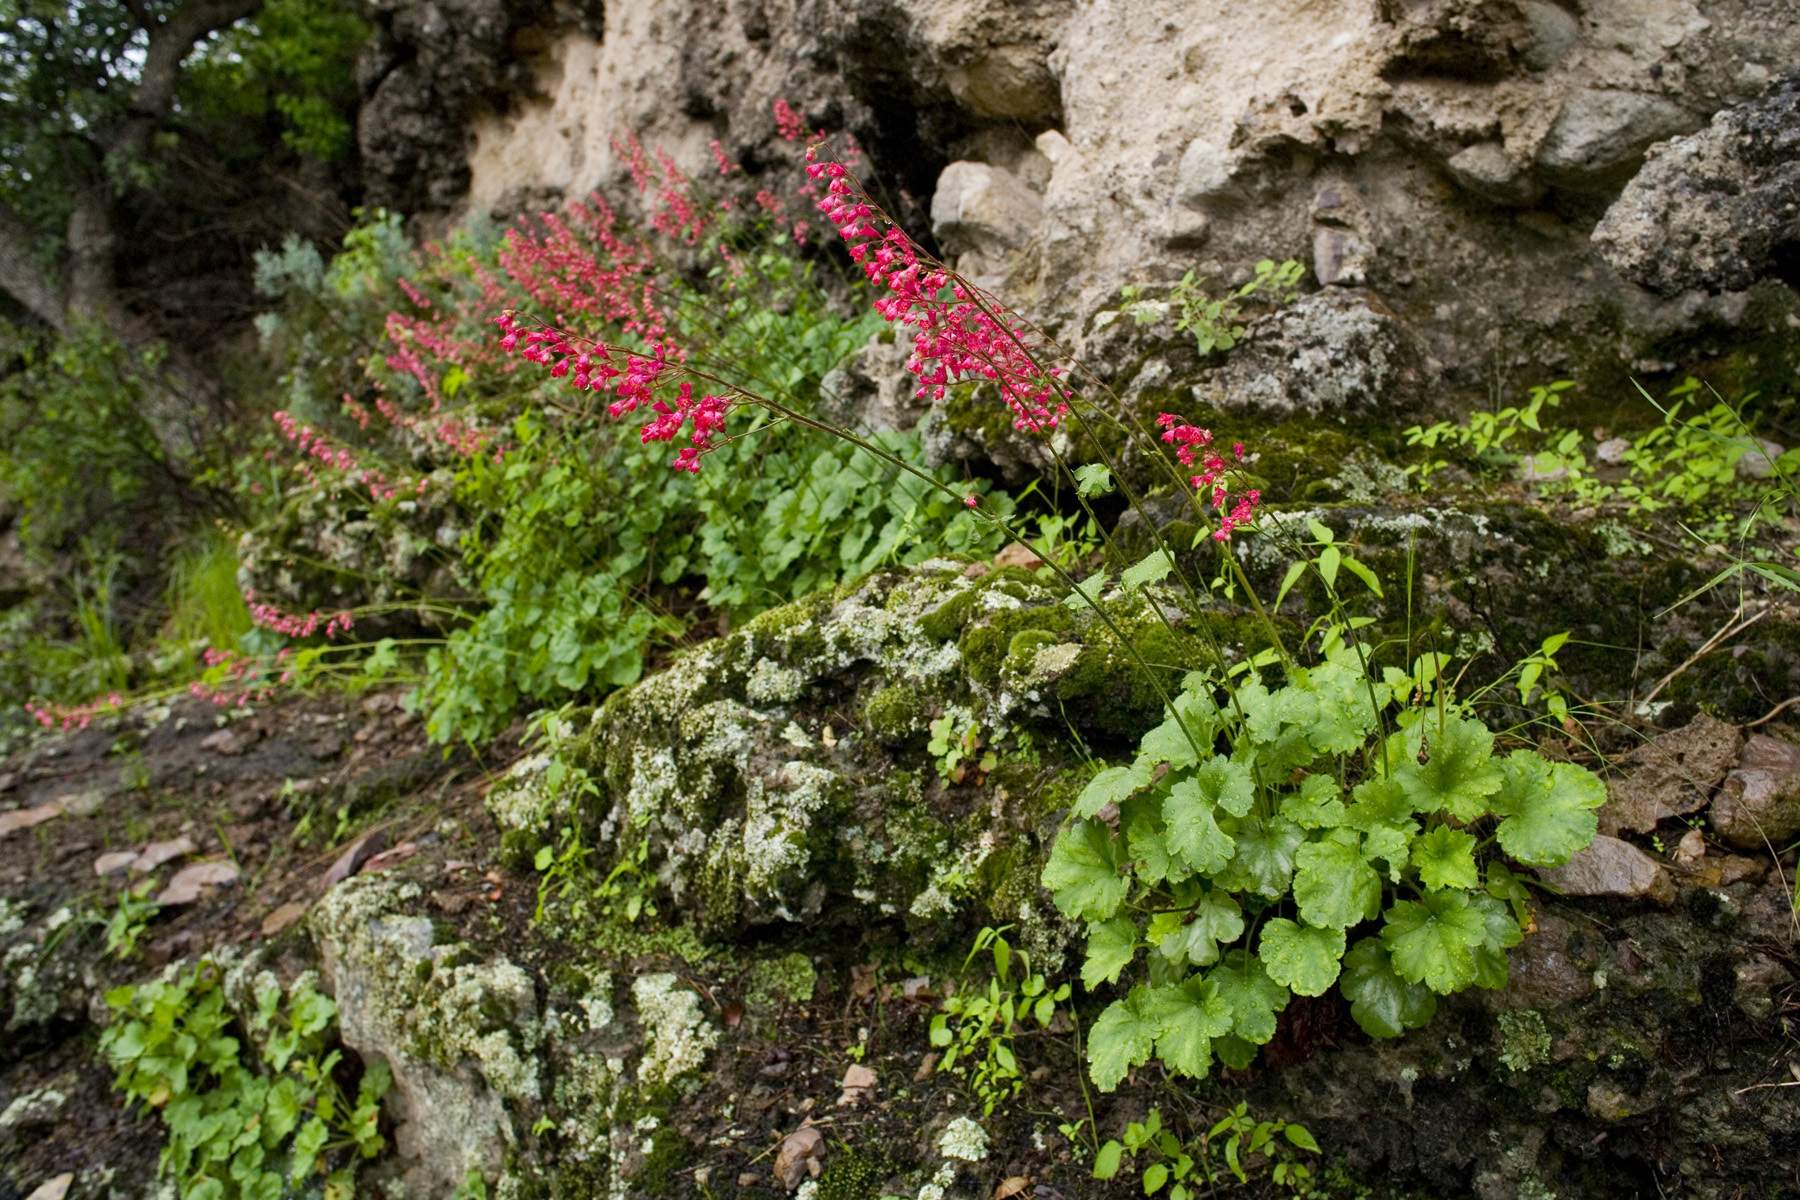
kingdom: Plantae
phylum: Tracheophyta
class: Magnoliopsida
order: Saxifragales
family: Saxifragaceae
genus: Heuchera
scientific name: Heuchera sanguinea
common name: Coralbells
